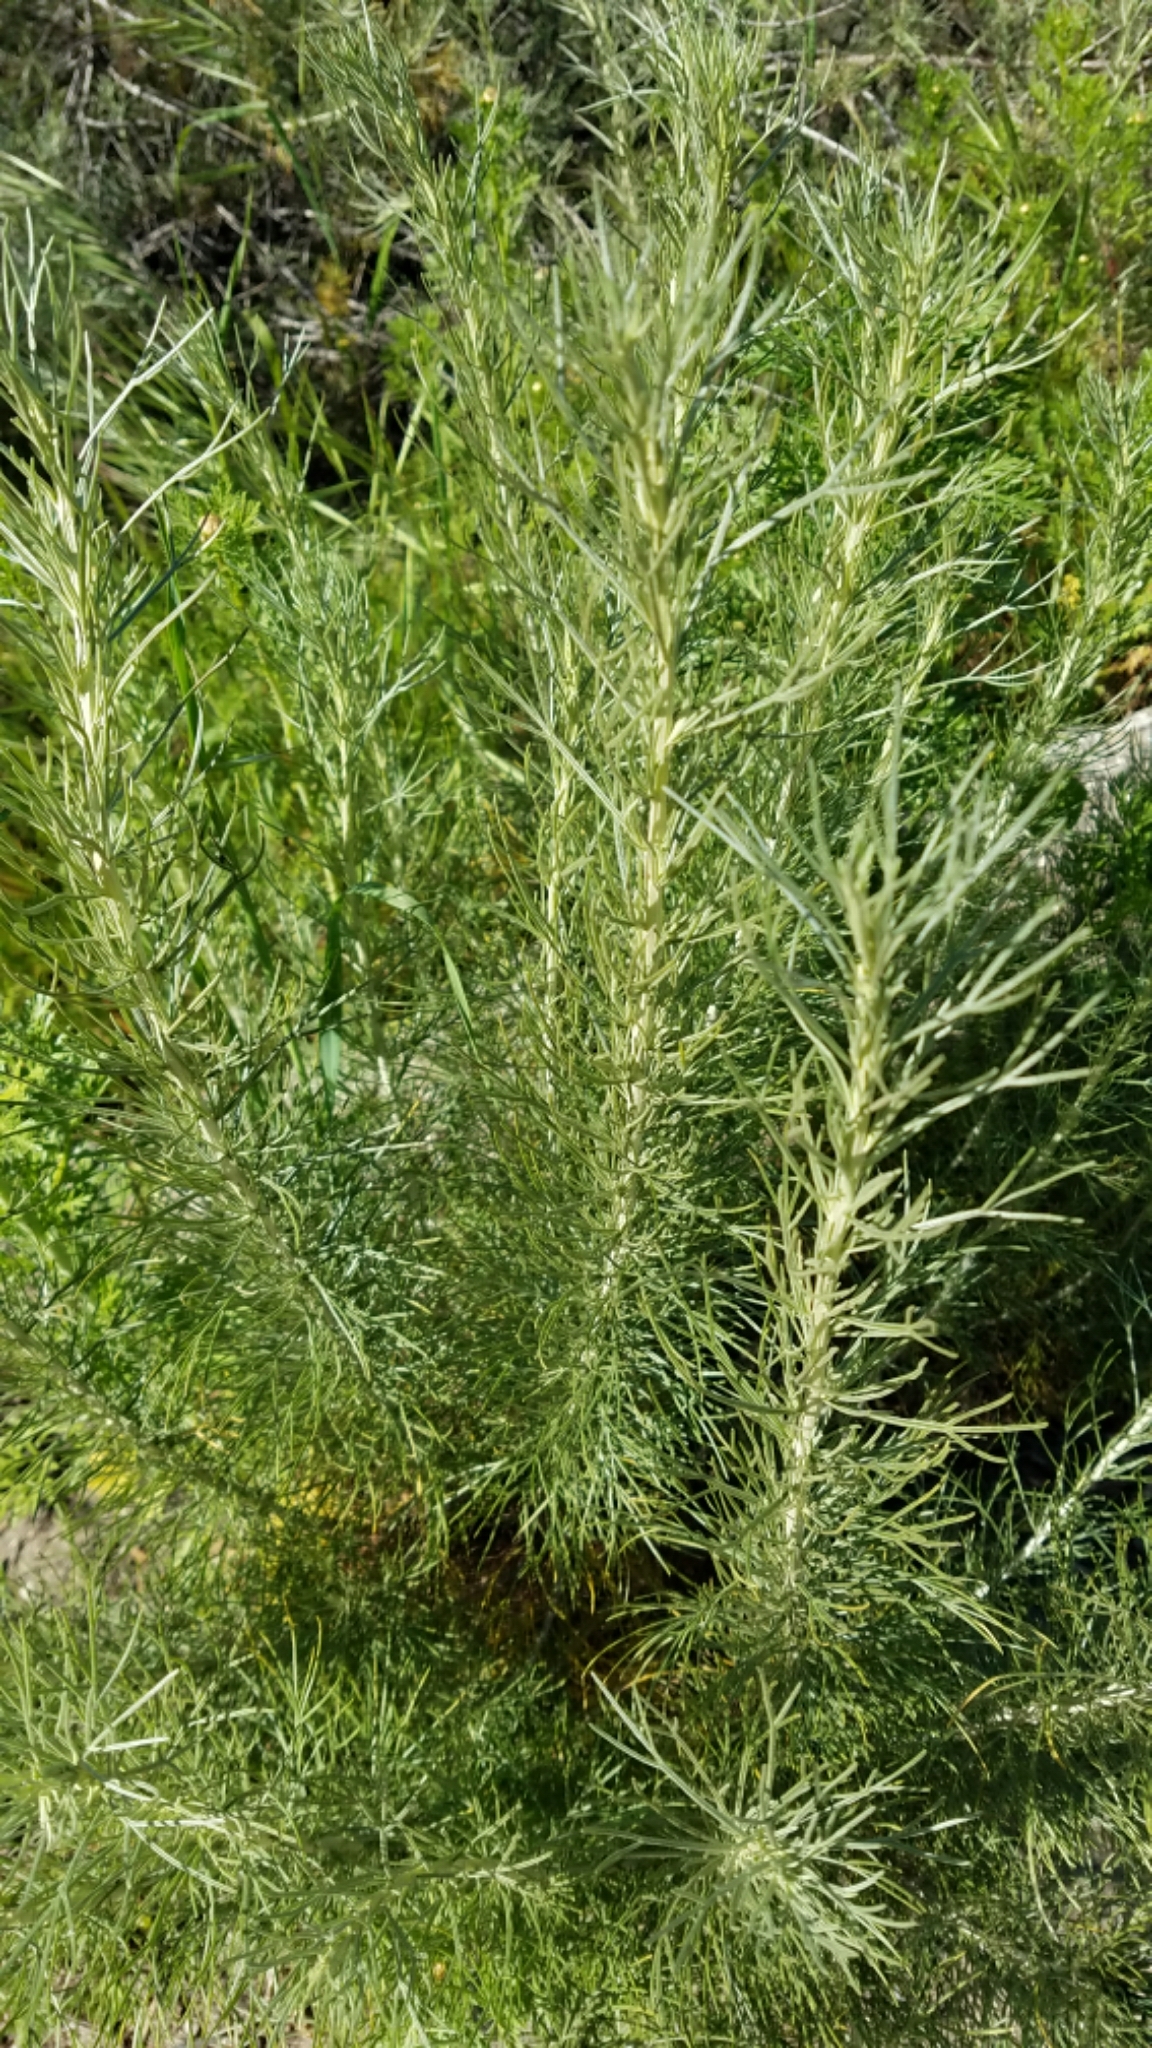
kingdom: Plantae
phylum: Tracheophyta
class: Magnoliopsida
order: Asterales
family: Asteraceae
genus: Artemisia
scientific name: Artemisia californica
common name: California sagebrush
